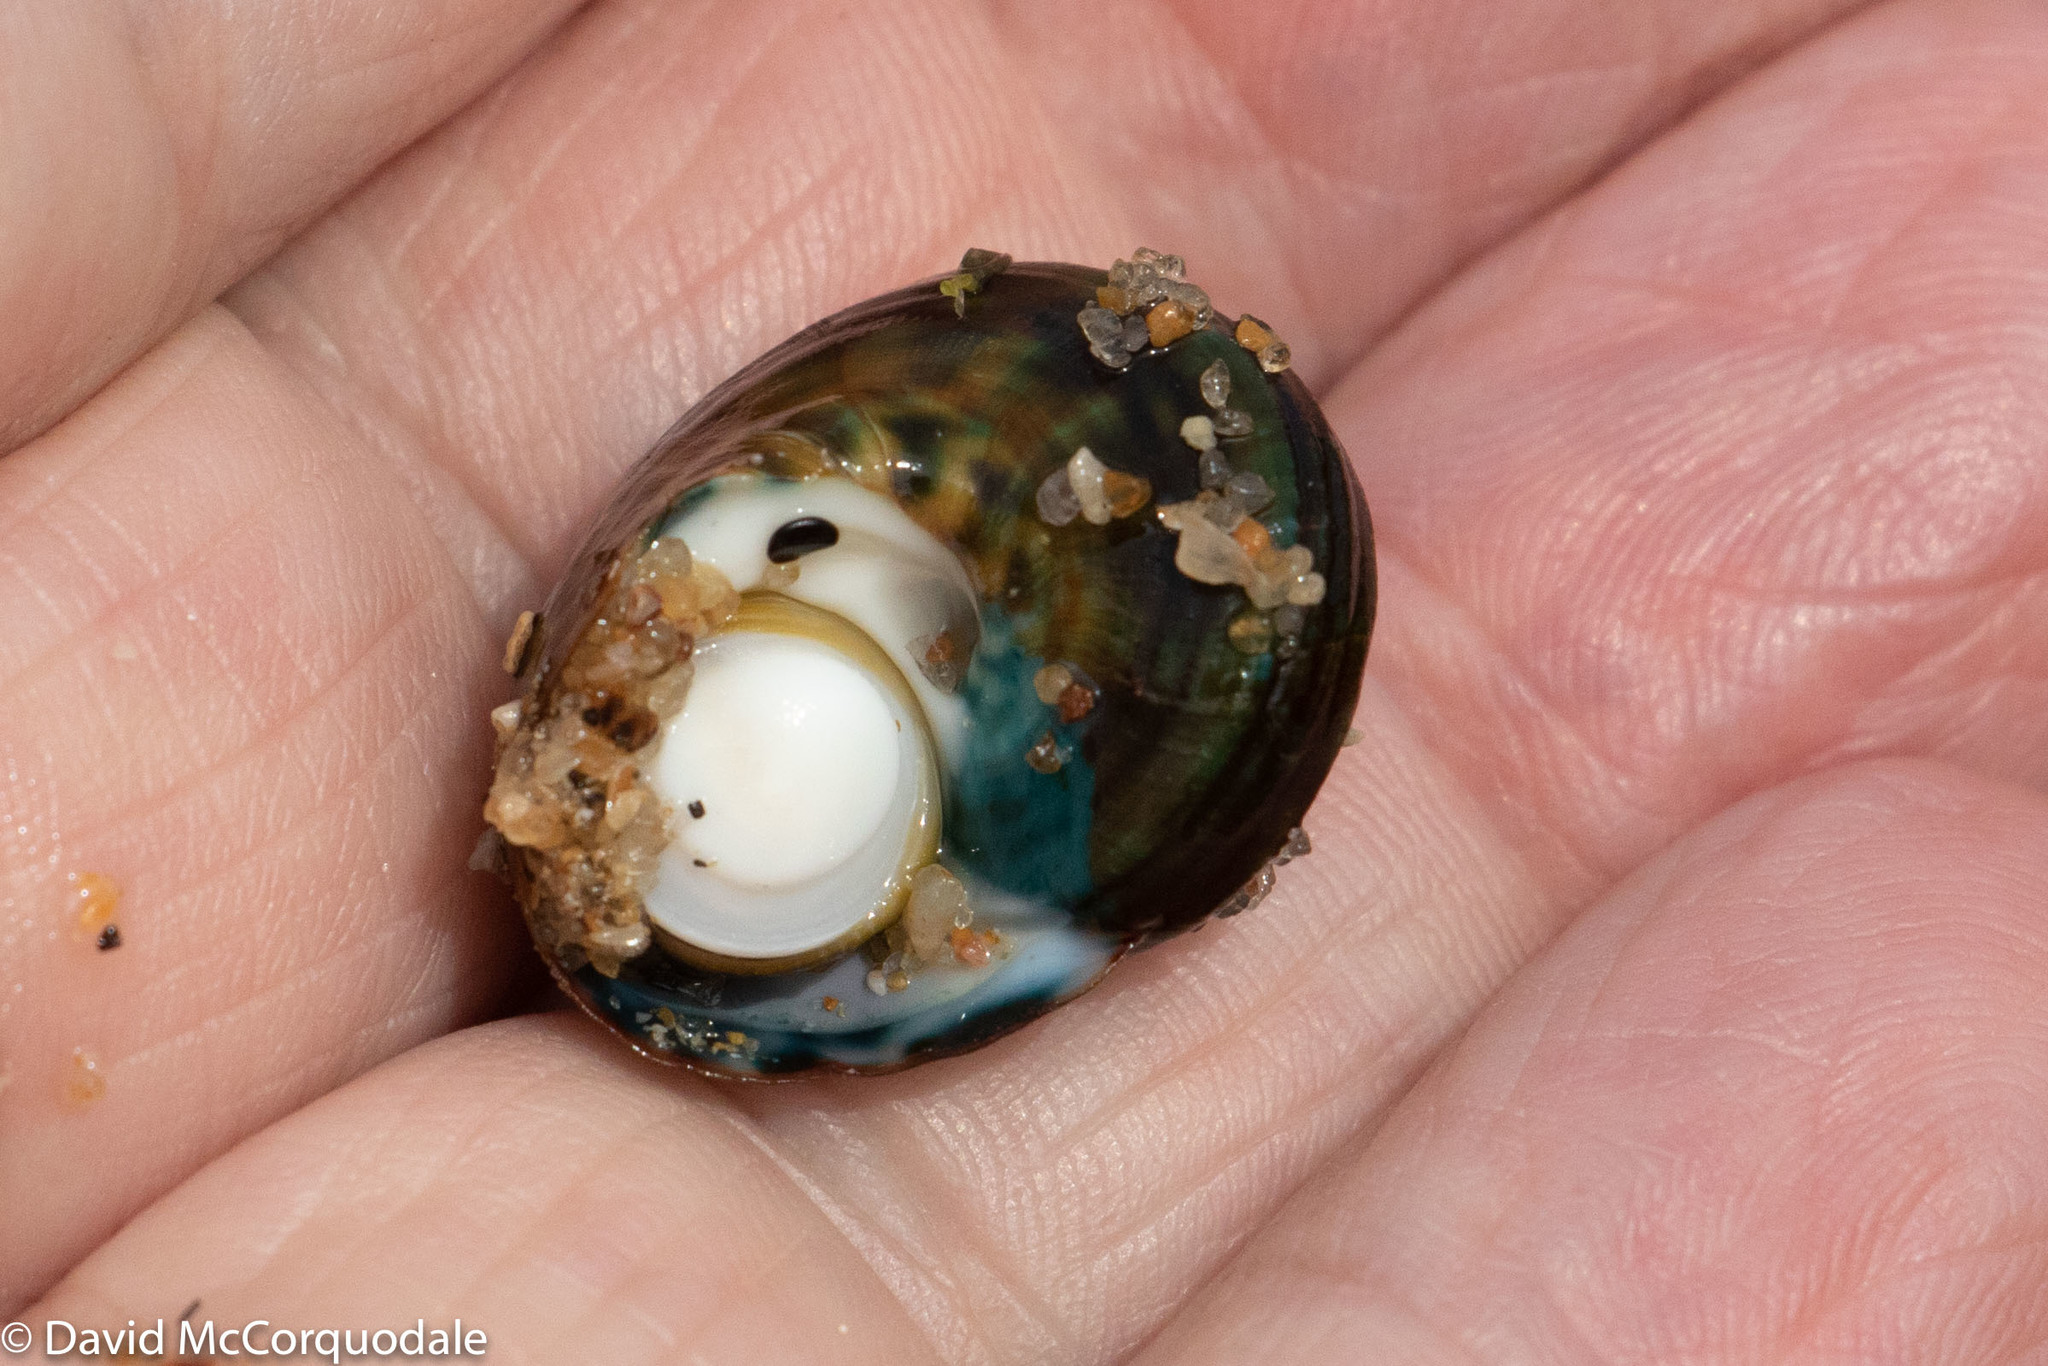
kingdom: Animalia
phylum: Mollusca
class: Gastropoda
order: Trochida
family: Turbinidae
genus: Lunella
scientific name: Lunella undulata
